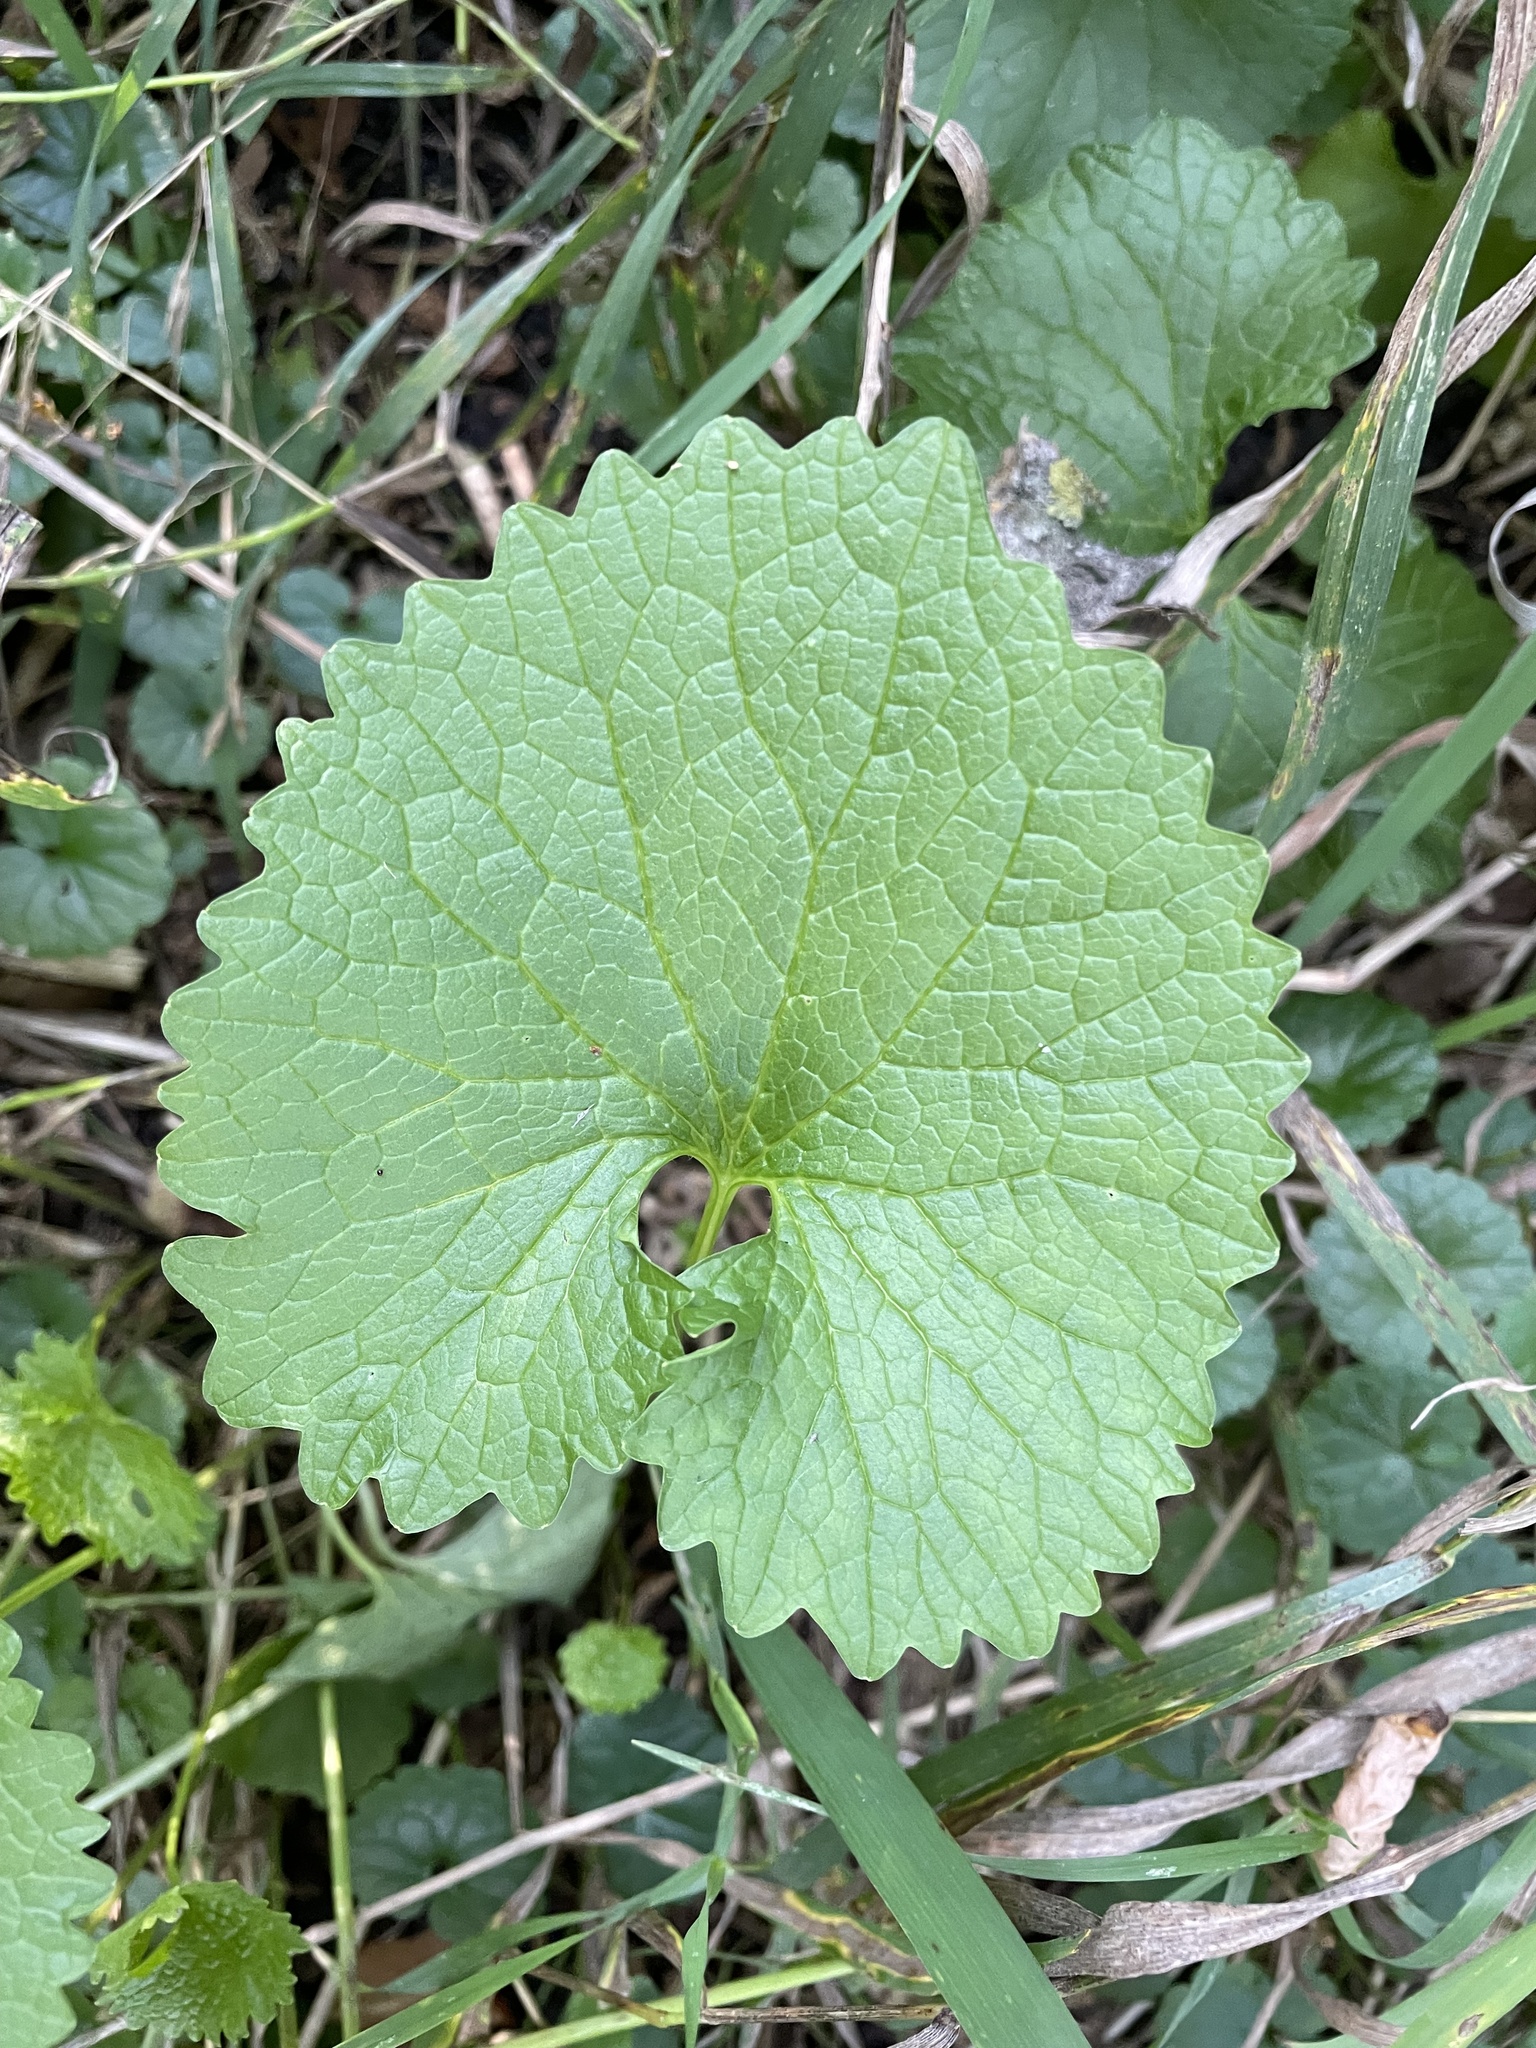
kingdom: Plantae
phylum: Tracheophyta
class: Magnoliopsida
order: Brassicales
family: Brassicaceae
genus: Alliaria
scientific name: Alliaria petiolata
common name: Garlic mustard
